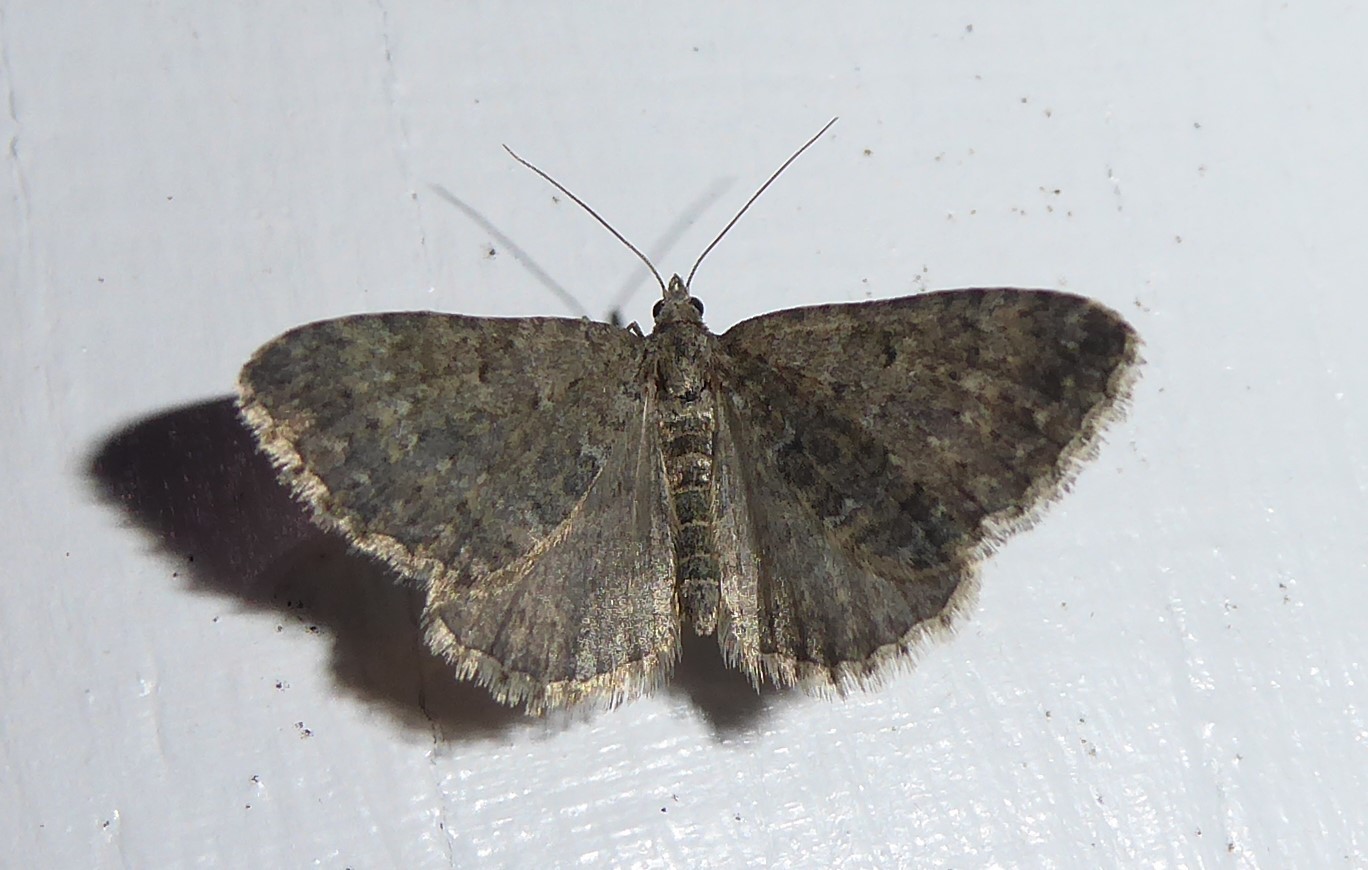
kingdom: Animalia
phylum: Arthropoda
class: Insecta
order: Lepidoptera
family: Geometridae
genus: Helastia
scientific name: Helastia corcularia
